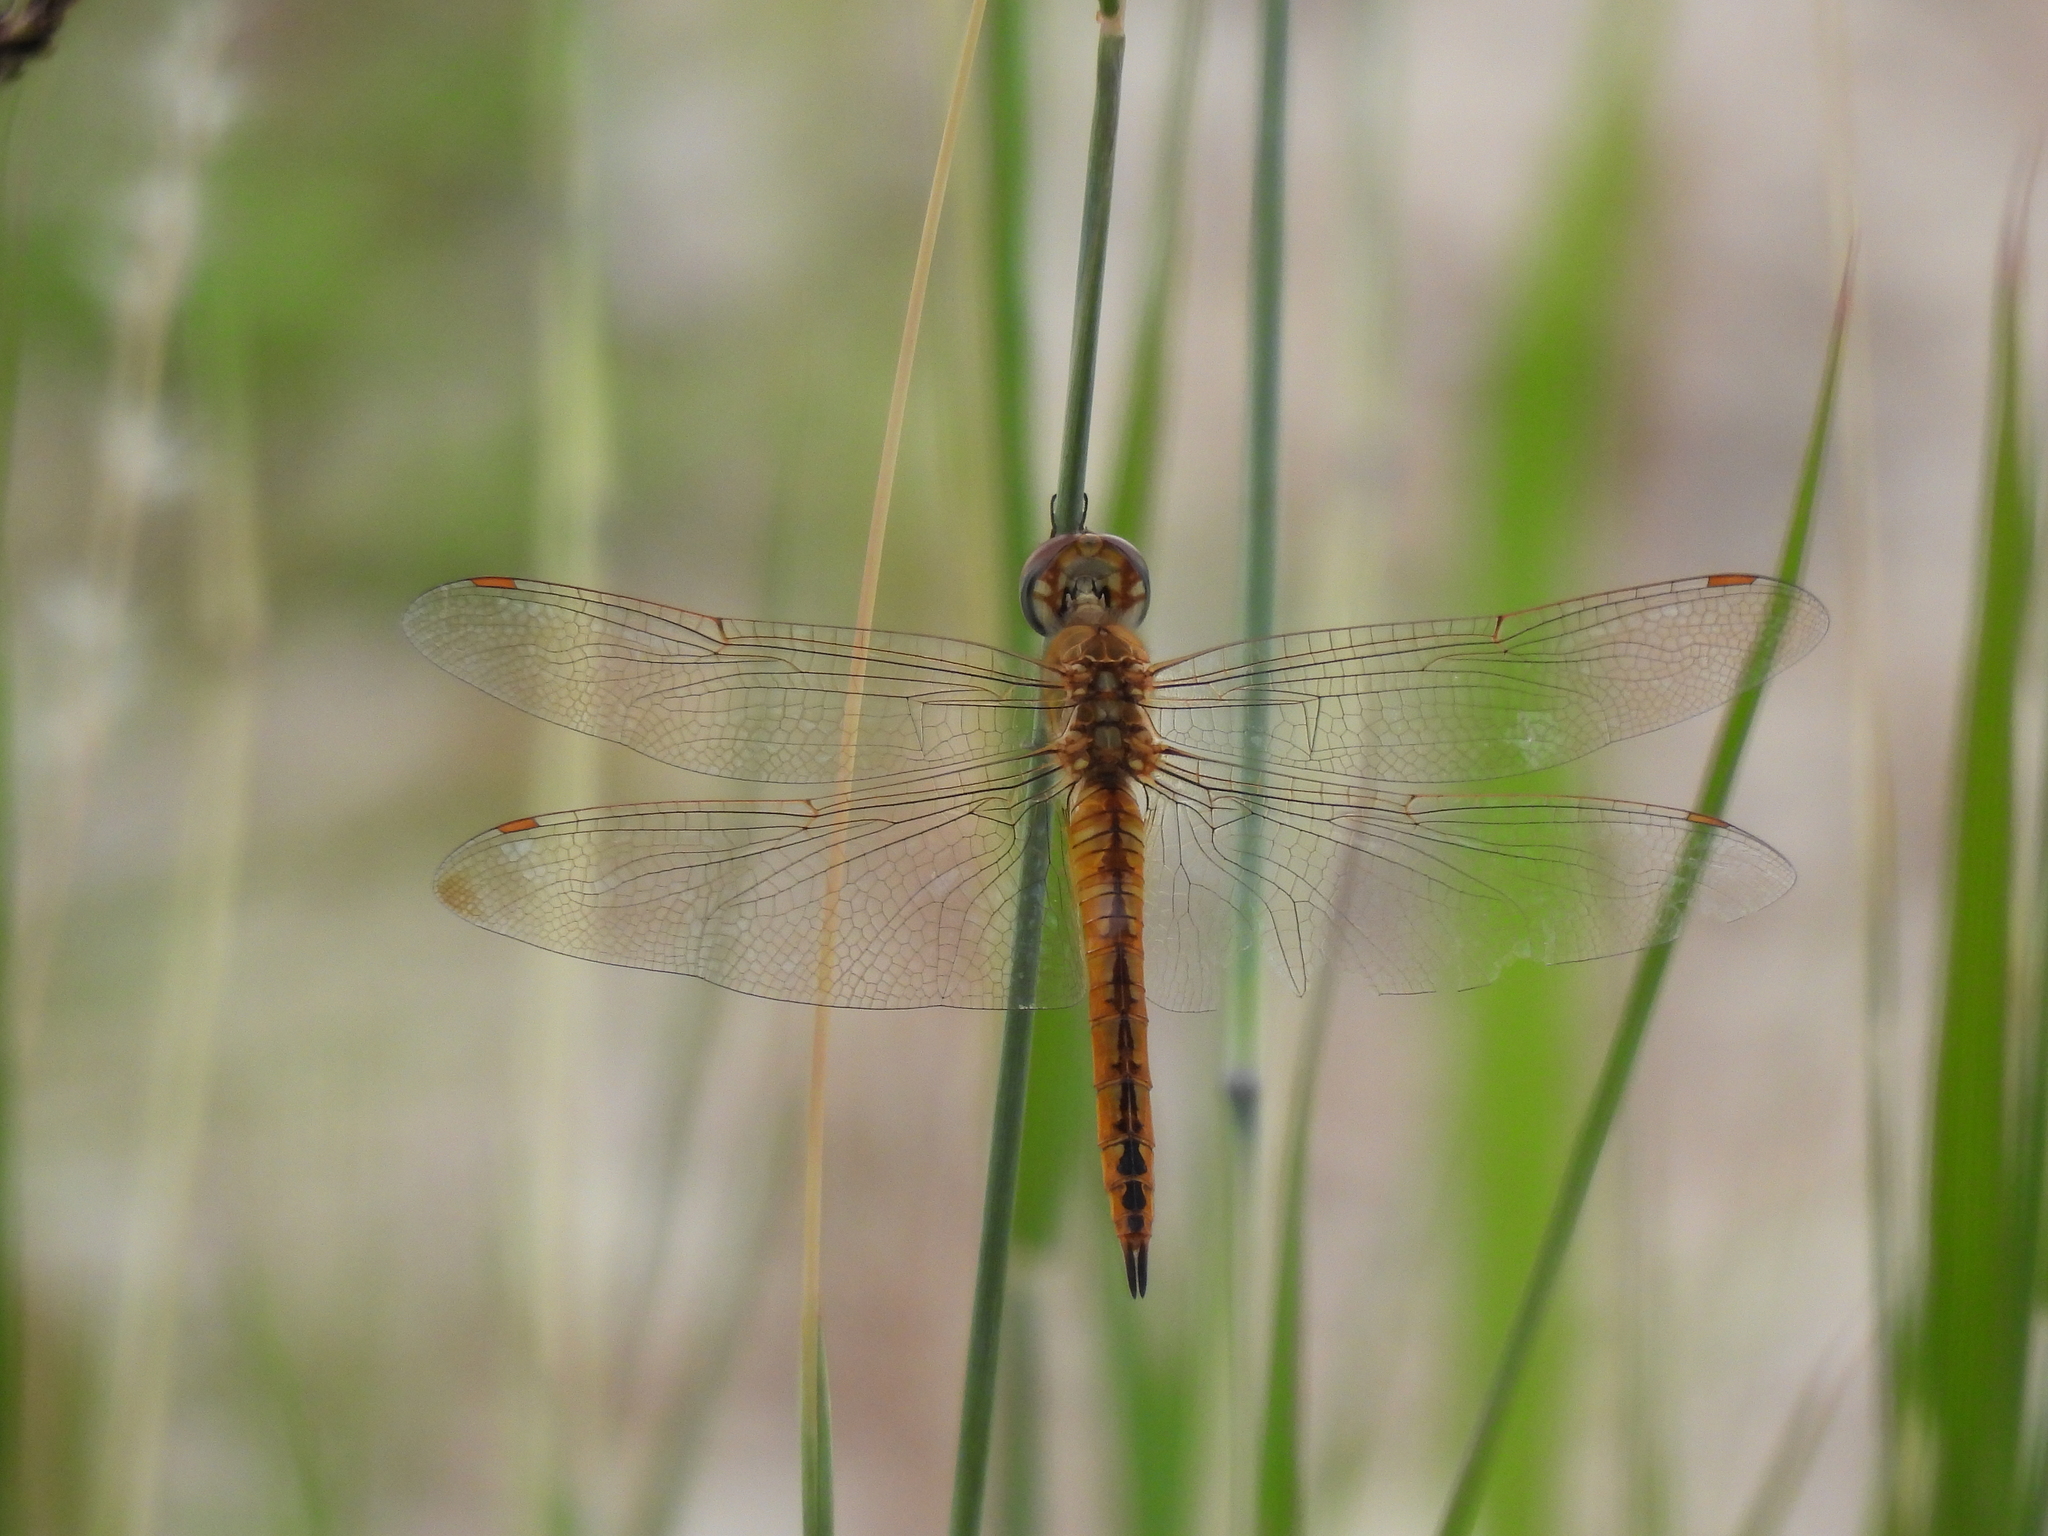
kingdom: Animalia
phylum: Arthropoda
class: Insecta
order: Odonata
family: Libellulidae
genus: Pantala
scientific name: Pantala flavescens
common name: Wandering glider
